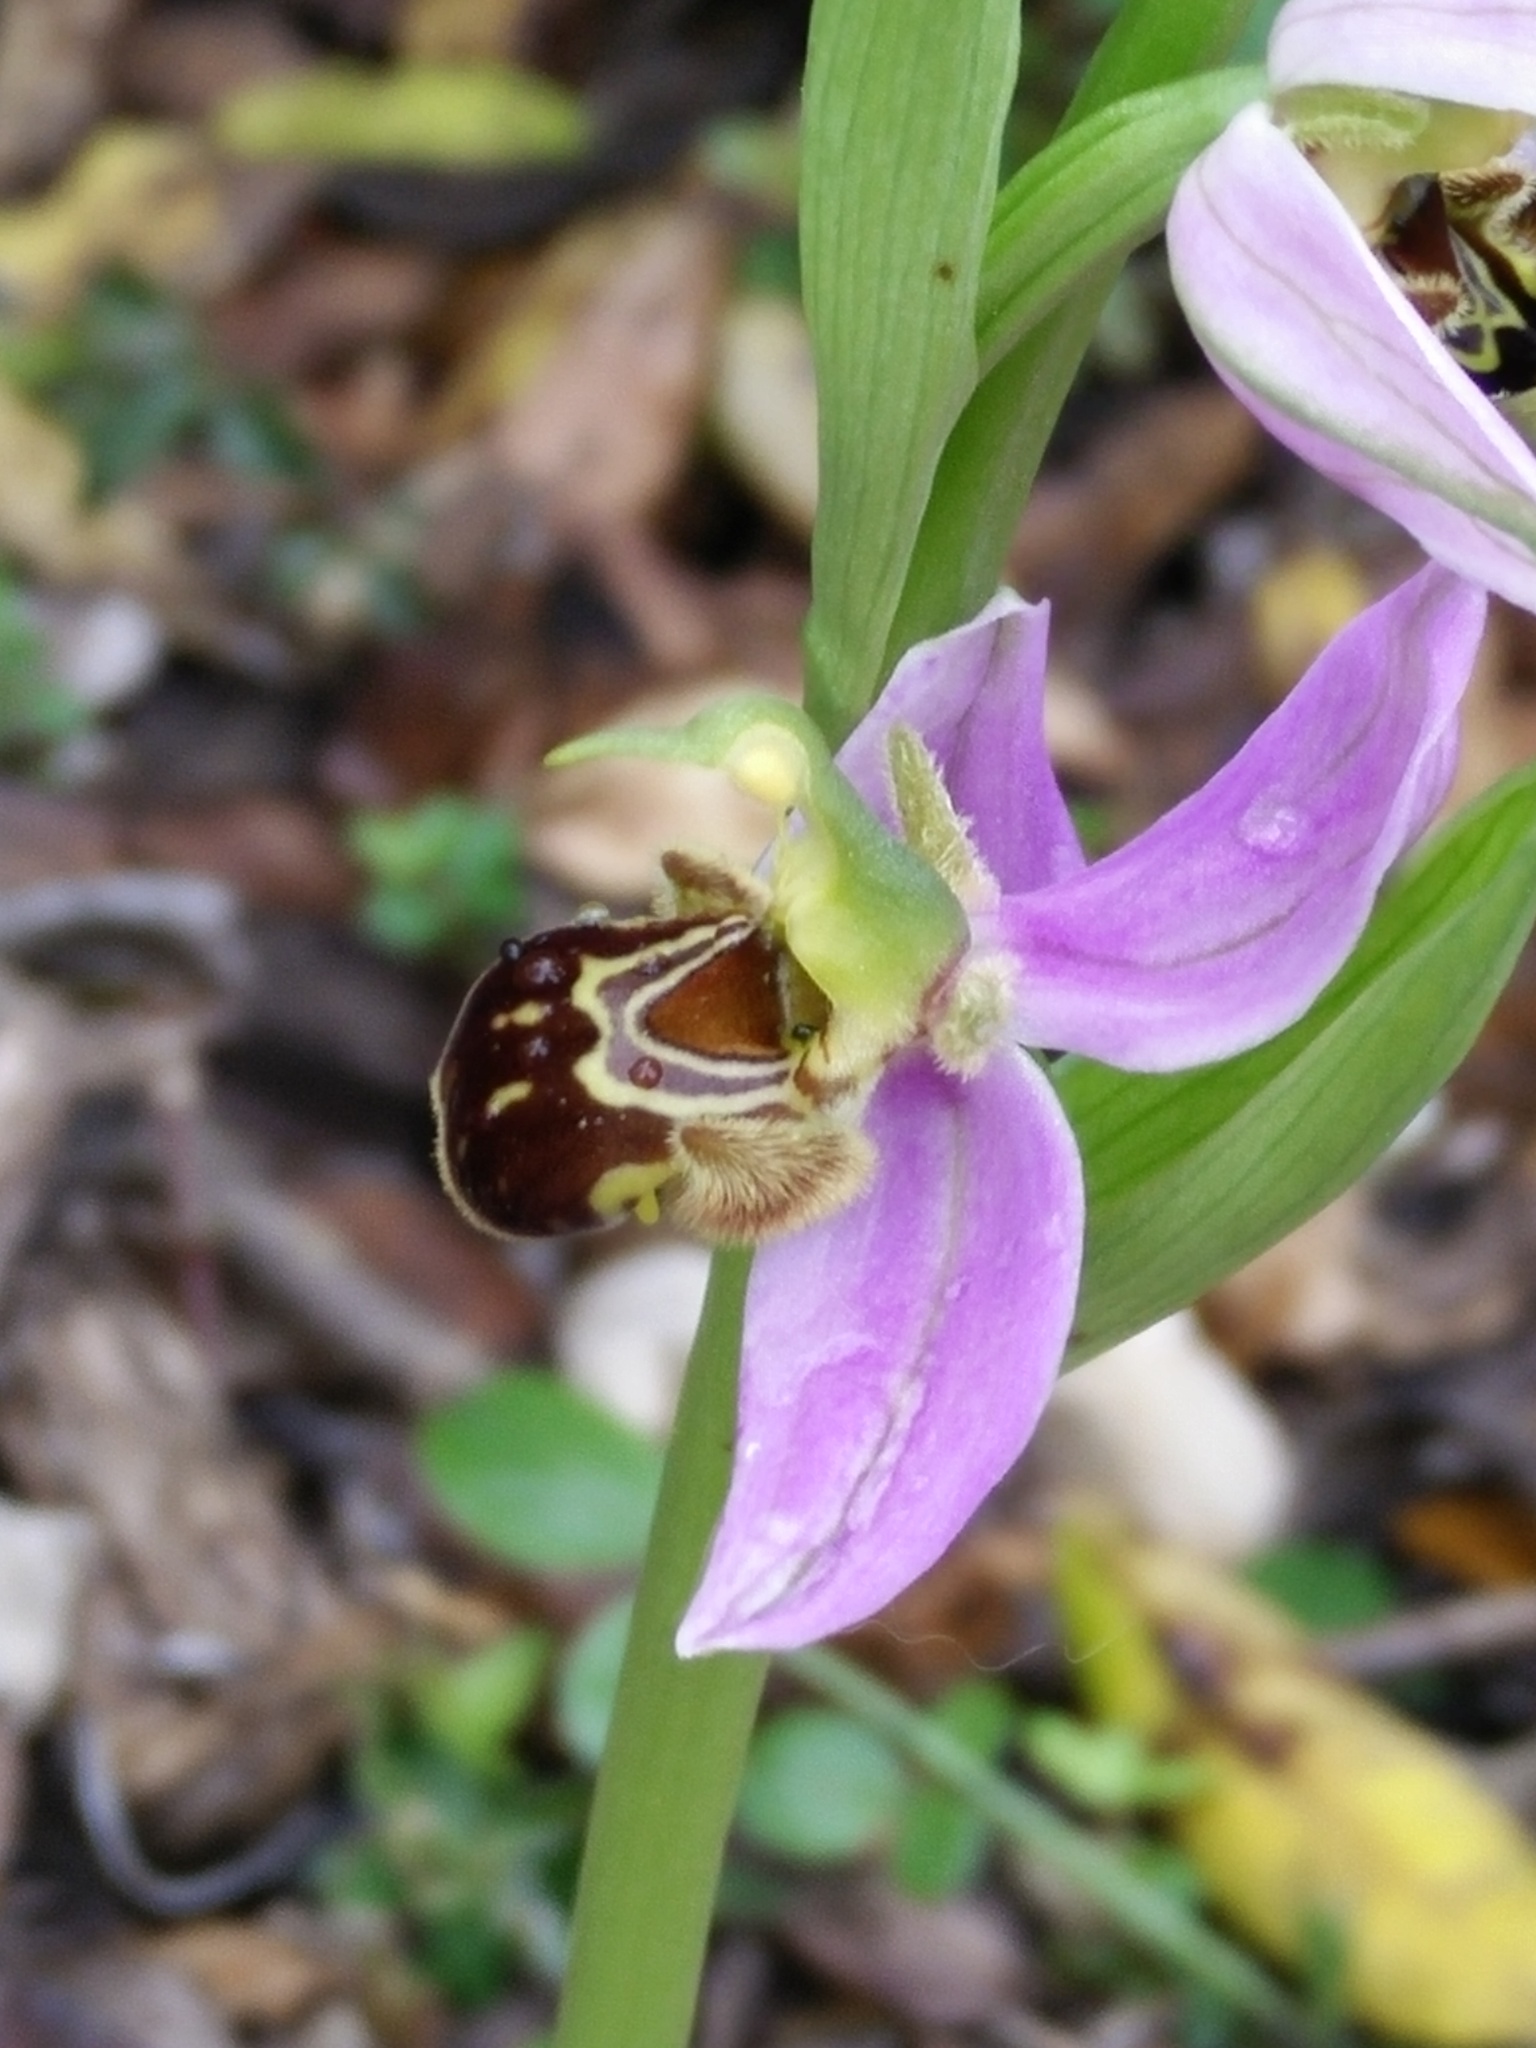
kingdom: Plantae
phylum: Tracheophyta
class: Liliopsida
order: Asparagales
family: Orchidaceae
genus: Ophrys
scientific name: Ophrys apifera
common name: Bee orchid
